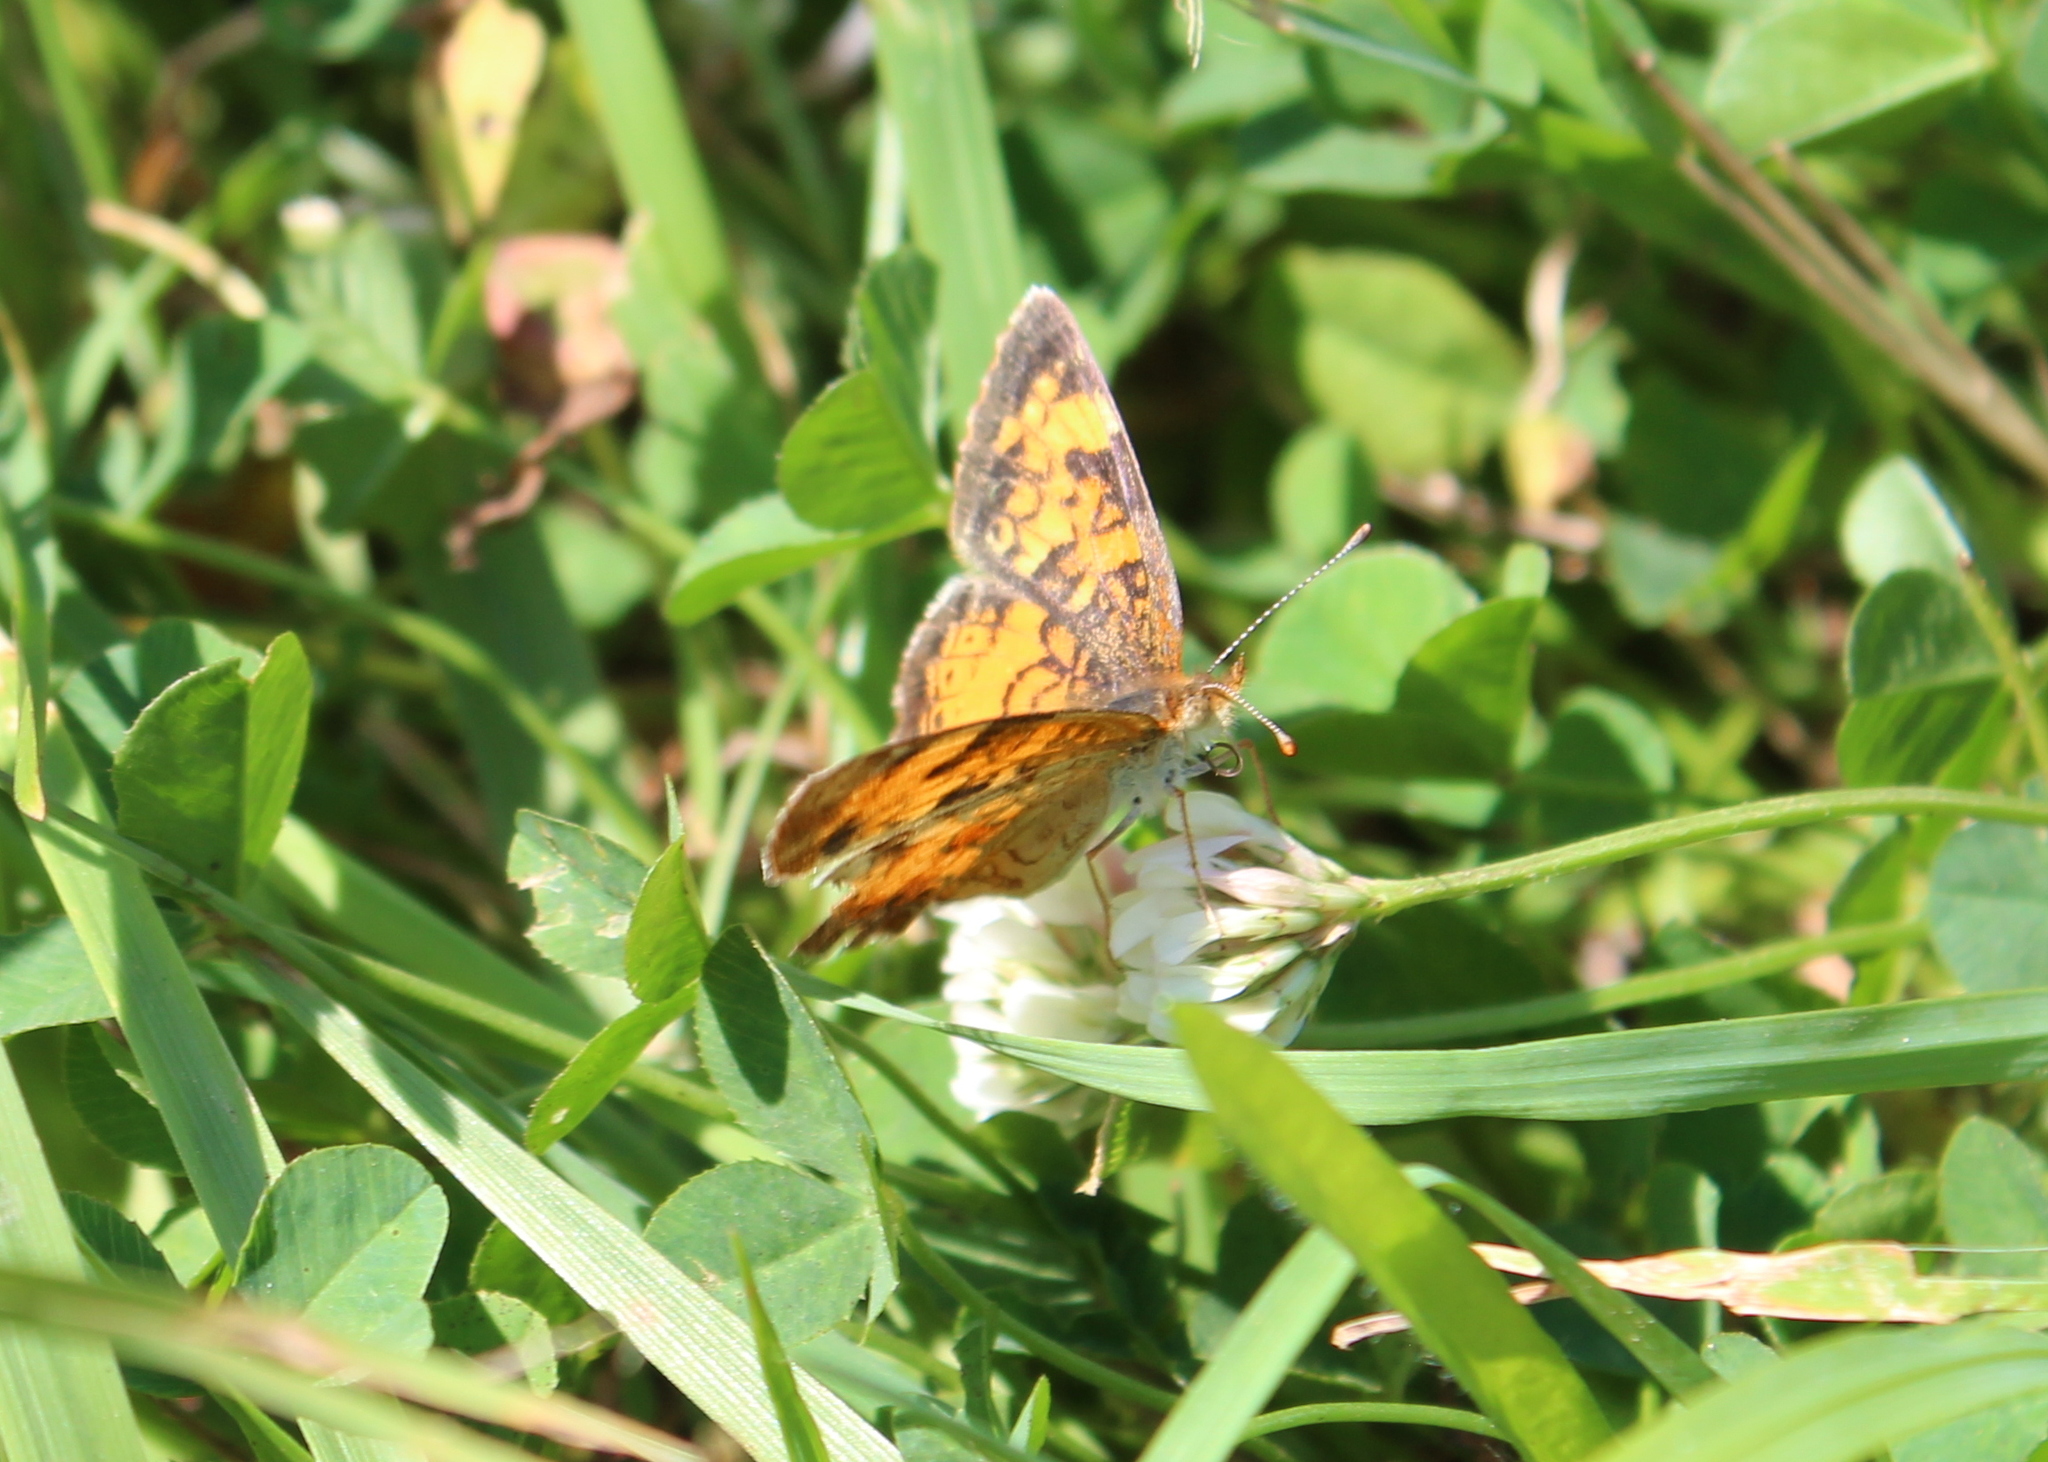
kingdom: Animalia
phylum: Arthropoda
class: Insecta
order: Lepidoptera
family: Nymphalidae
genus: Phyciodes
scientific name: Phyciodes tharos
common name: Pearl crescent
